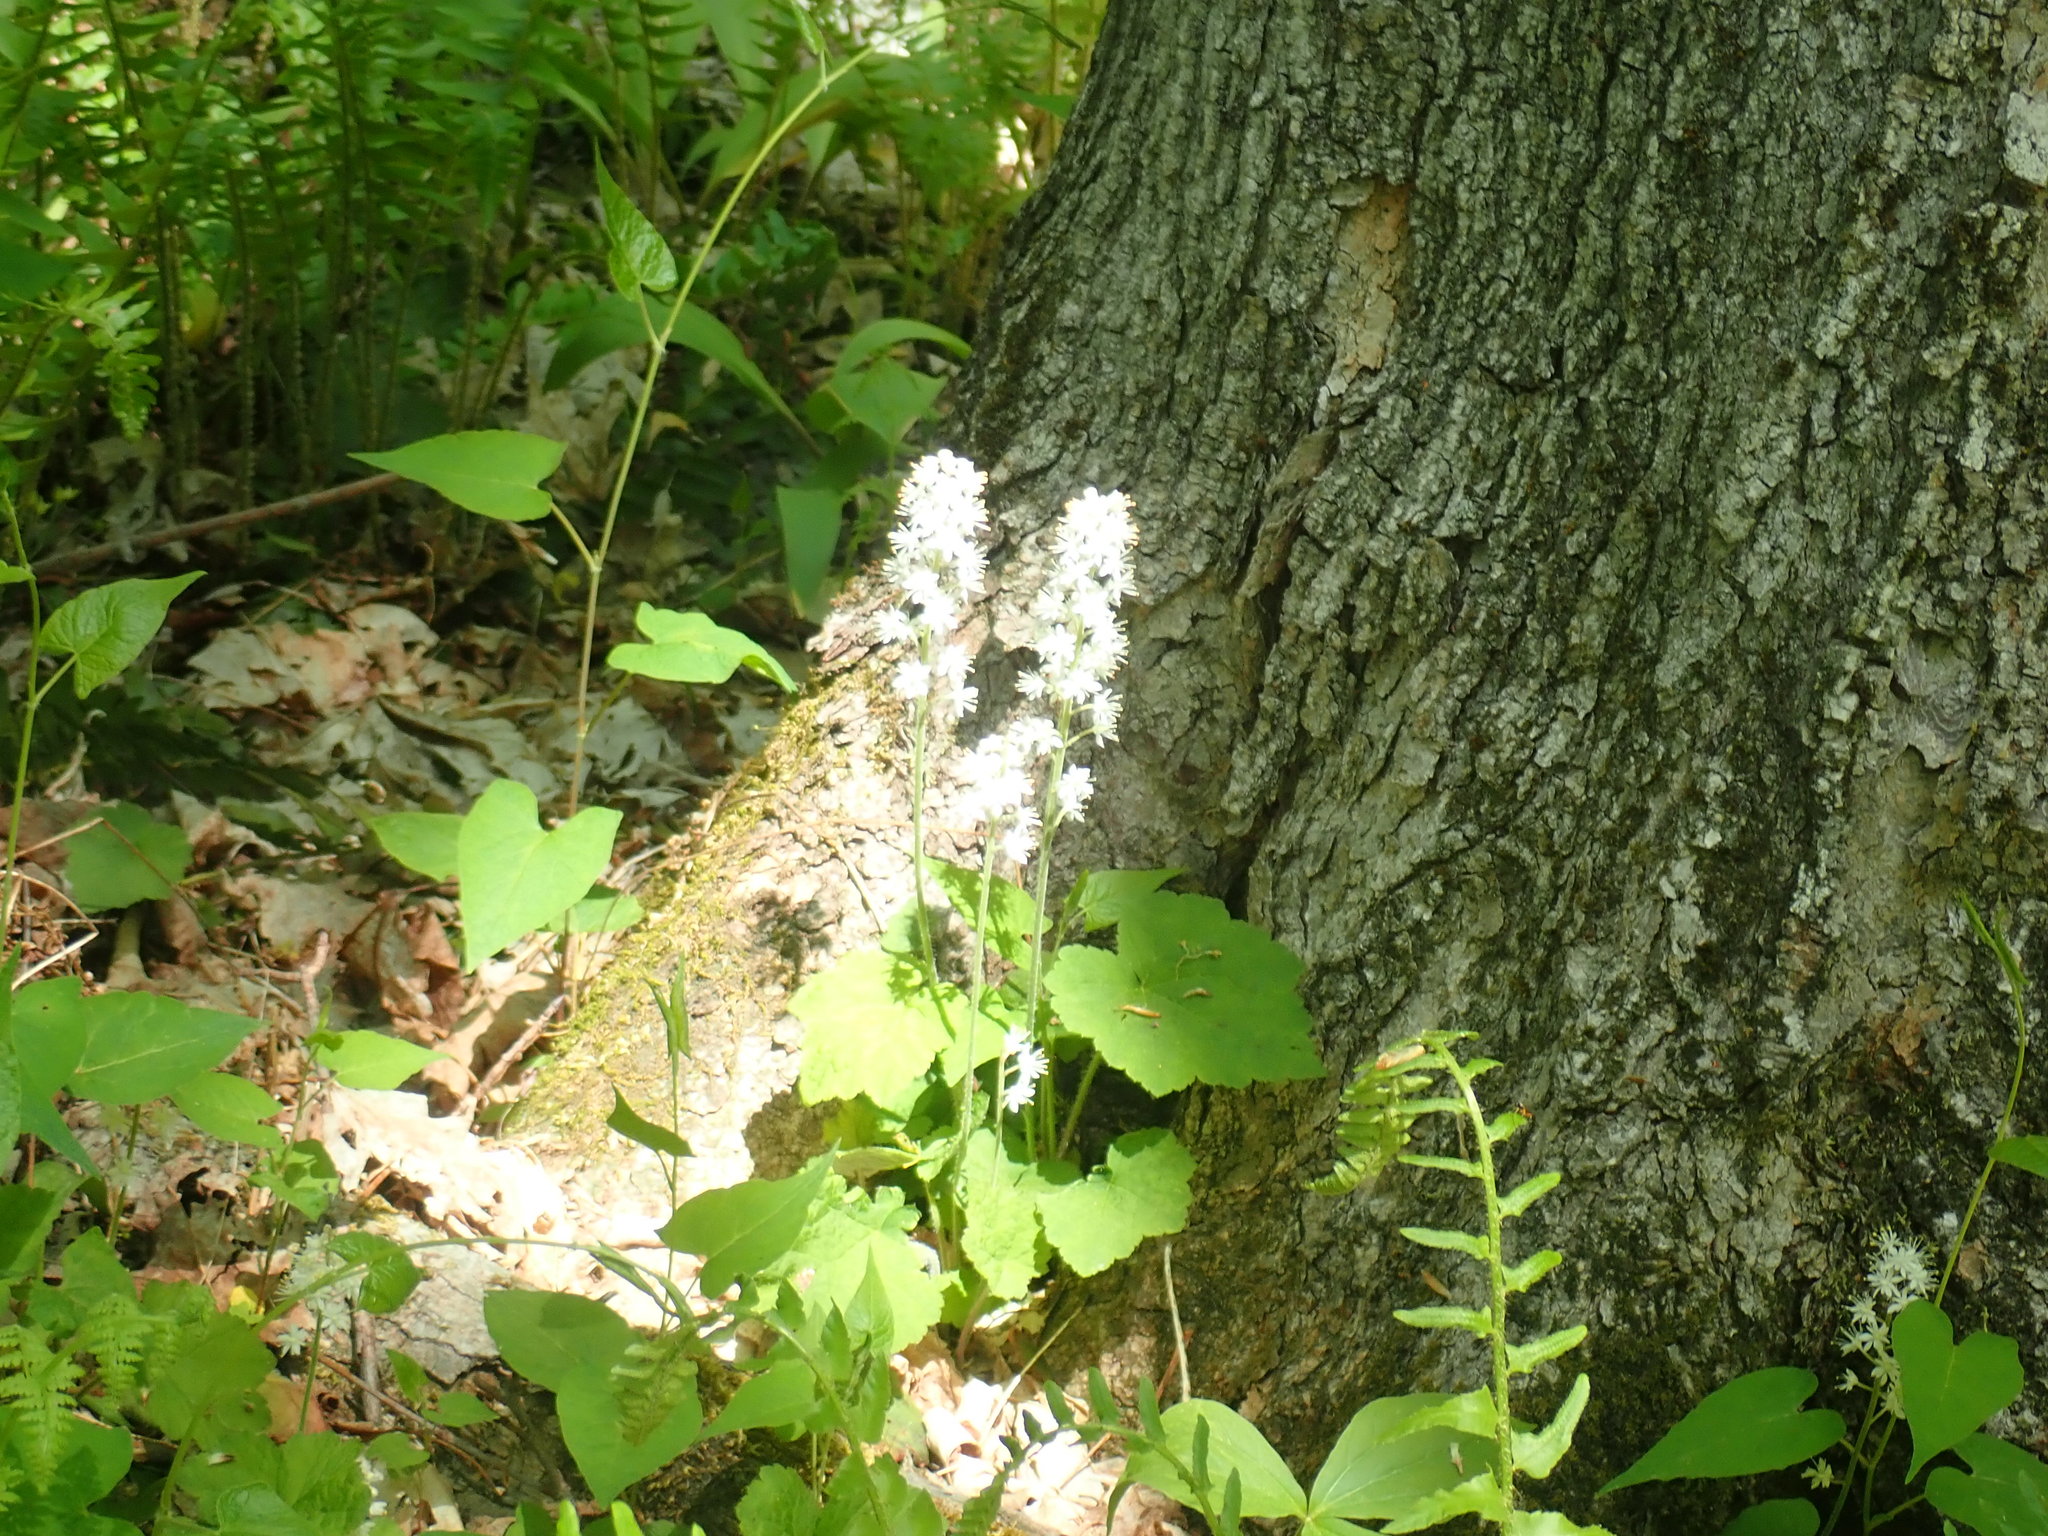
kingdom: Plantae
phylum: Tracheophyta
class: Magnoliopsida
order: Saxifragales
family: Saxifragaceae
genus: Tiarella
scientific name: Tiarella stolonifera
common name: Stoloniferous foamflower
